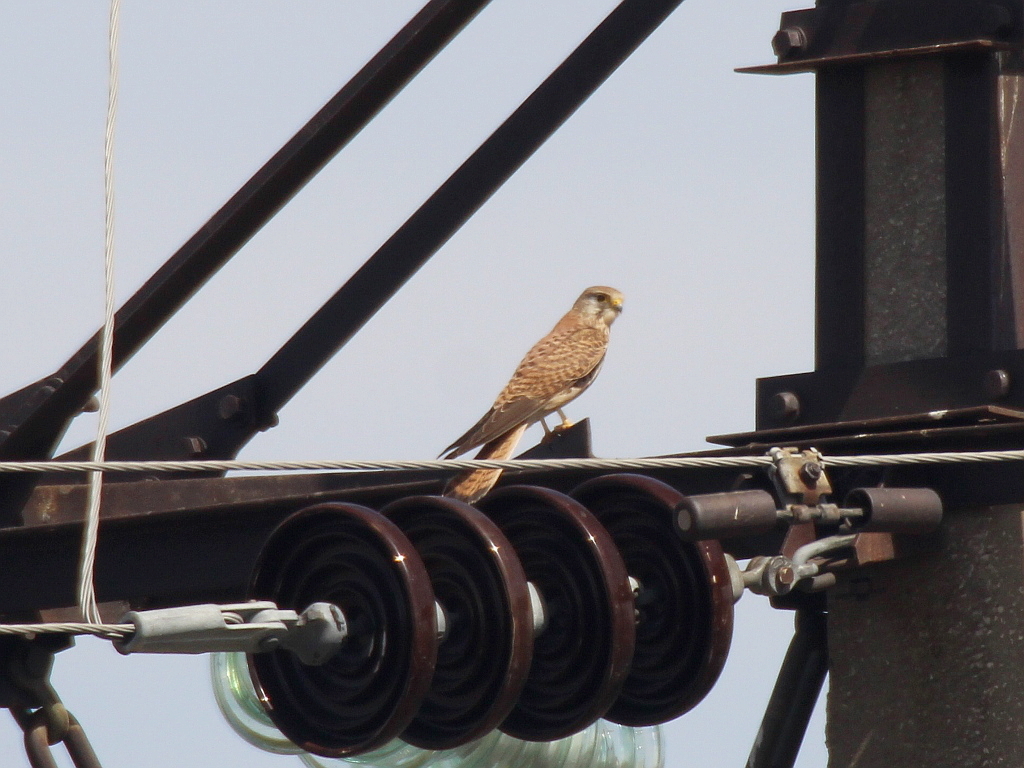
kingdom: Animalia
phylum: Chordata
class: Aves
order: Falconiformes
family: Falconidae
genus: Falco
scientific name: Falco tinnunculus
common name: Common kestrel
